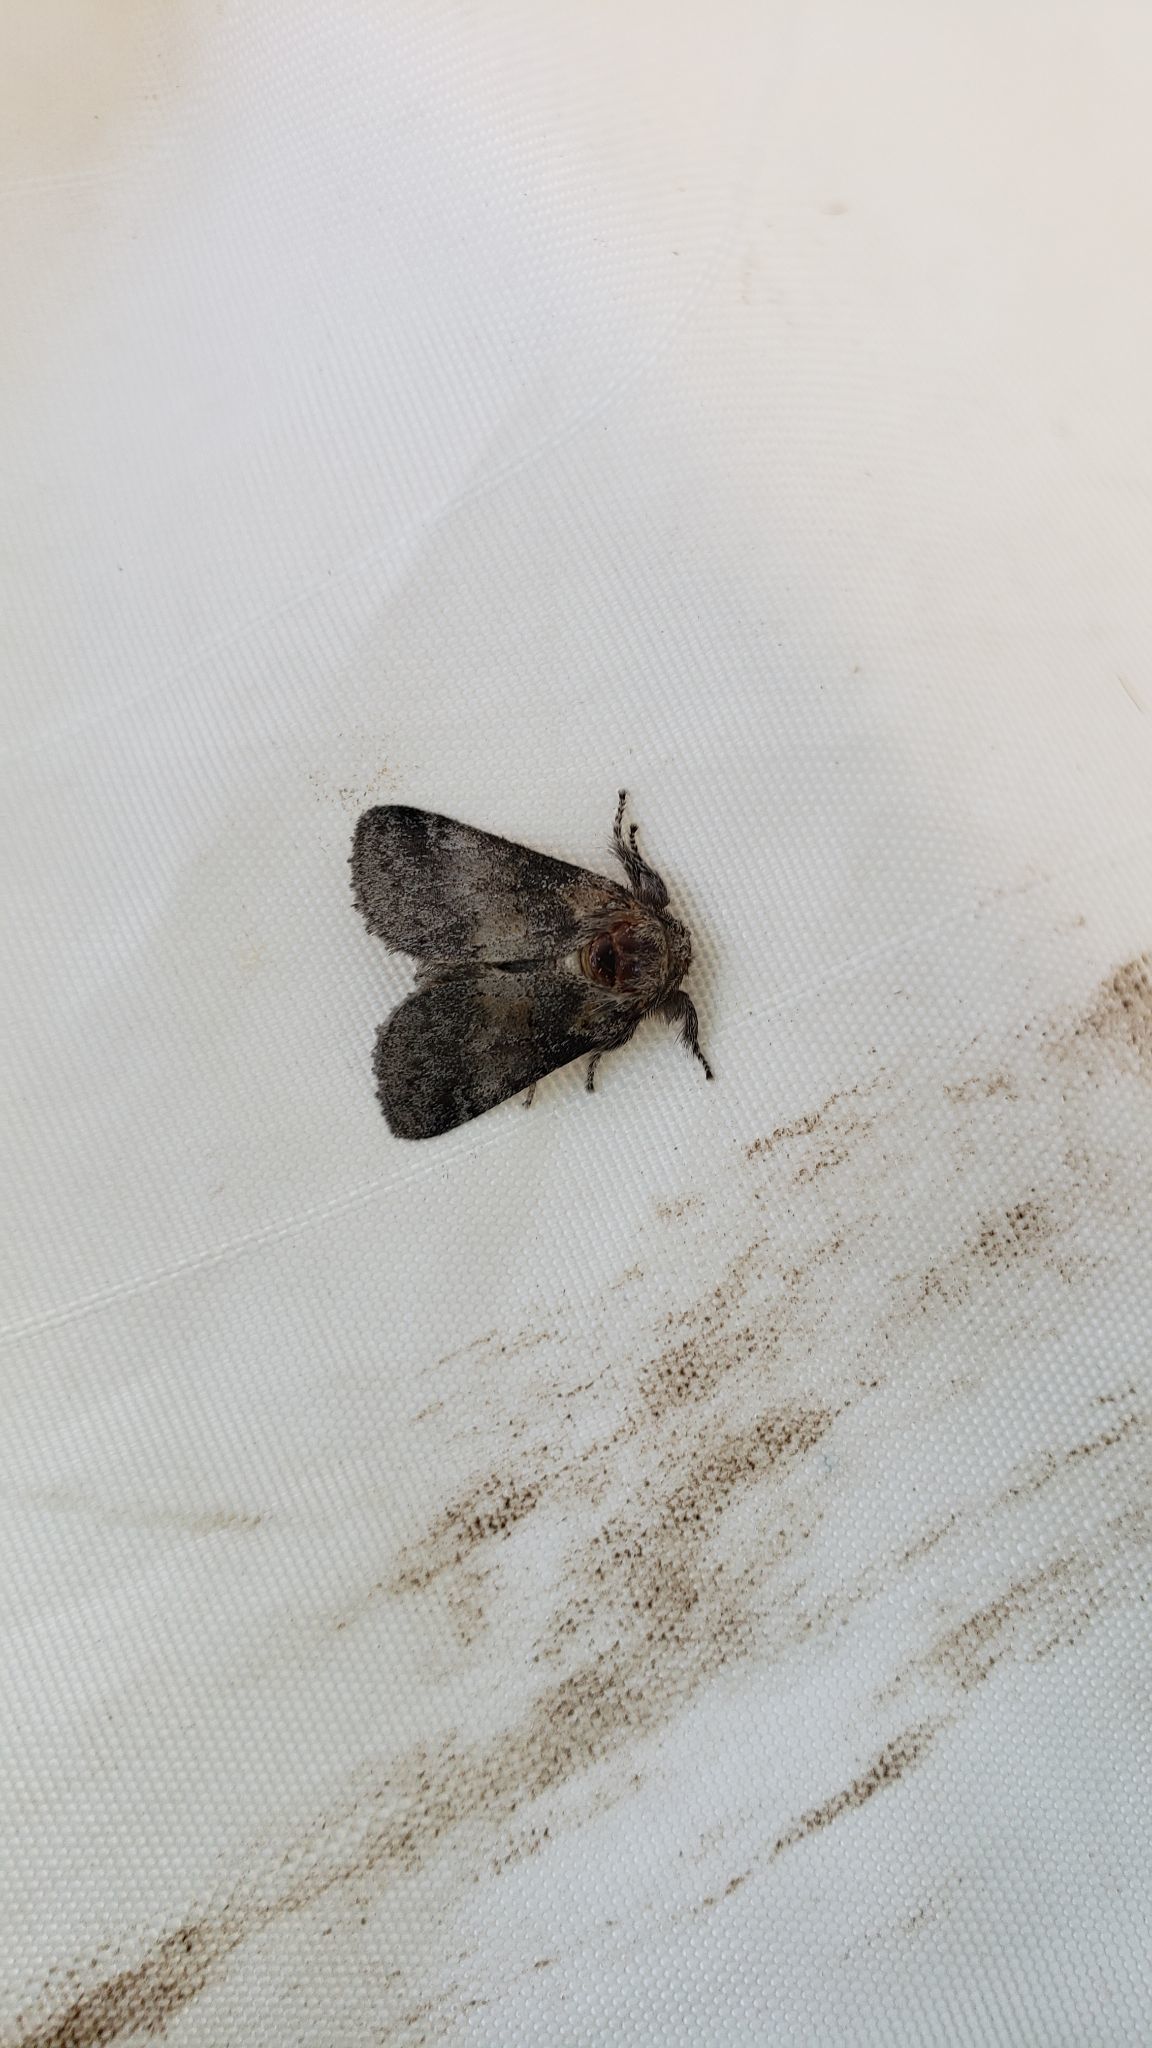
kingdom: Animalia
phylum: Arthropoda
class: Insecta
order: Lepidoptera
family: Notodontidae
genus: Gluphisia
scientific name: Gluphisia septentrionis
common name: Common gluphisia
